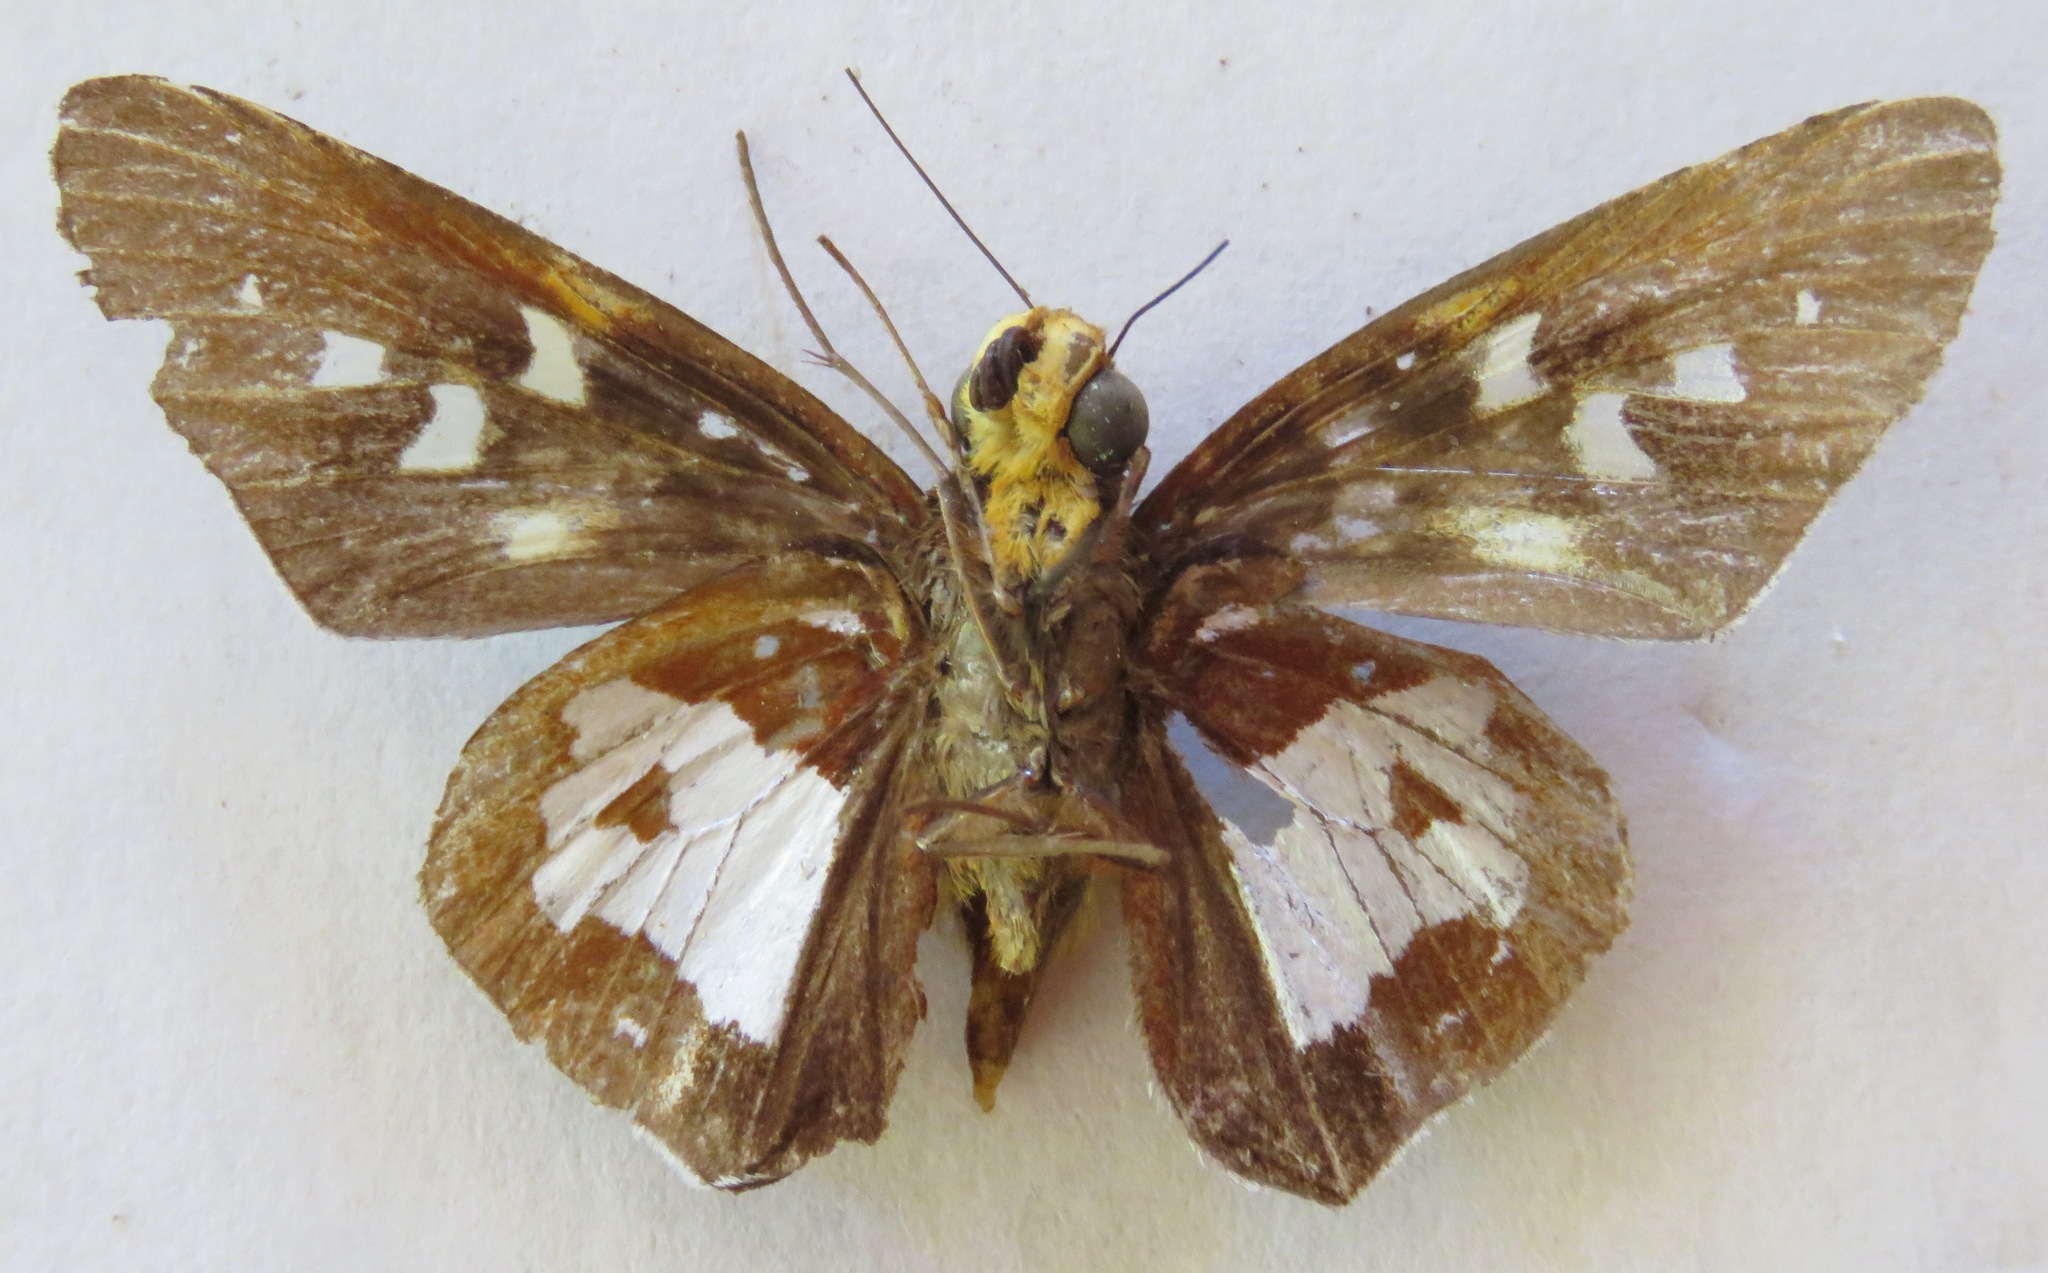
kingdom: Animalia
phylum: Arthropoda
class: Insecta
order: Lepidoptera
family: Hesperiidae
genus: Aides
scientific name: Aides dysoni
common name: Dyson's silverpatch
